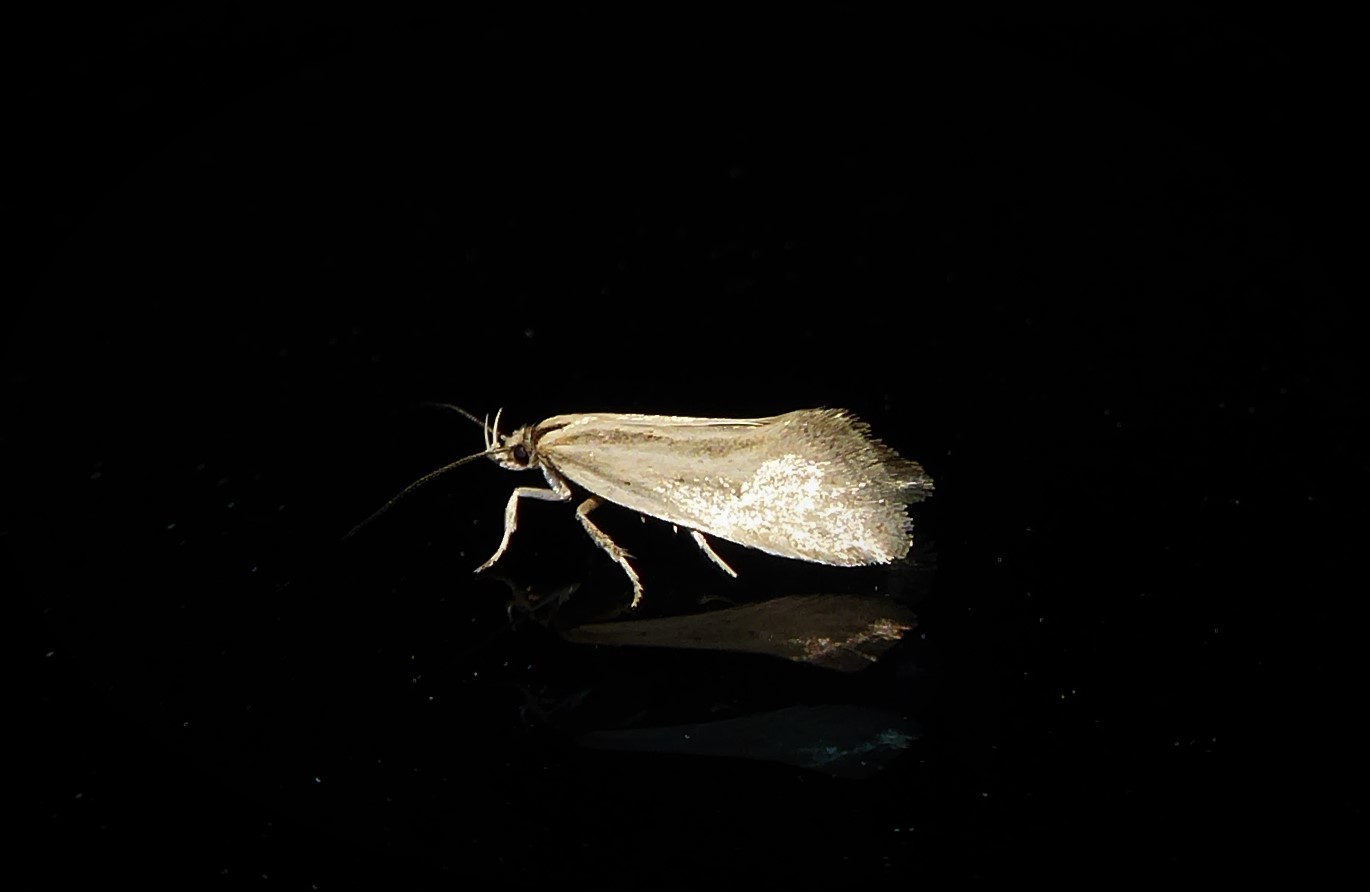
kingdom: Animalia
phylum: Arthropoda
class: Insecta
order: Lepidoptera
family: Oecophoridae
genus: Tingena
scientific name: Tingena chloradelpha
